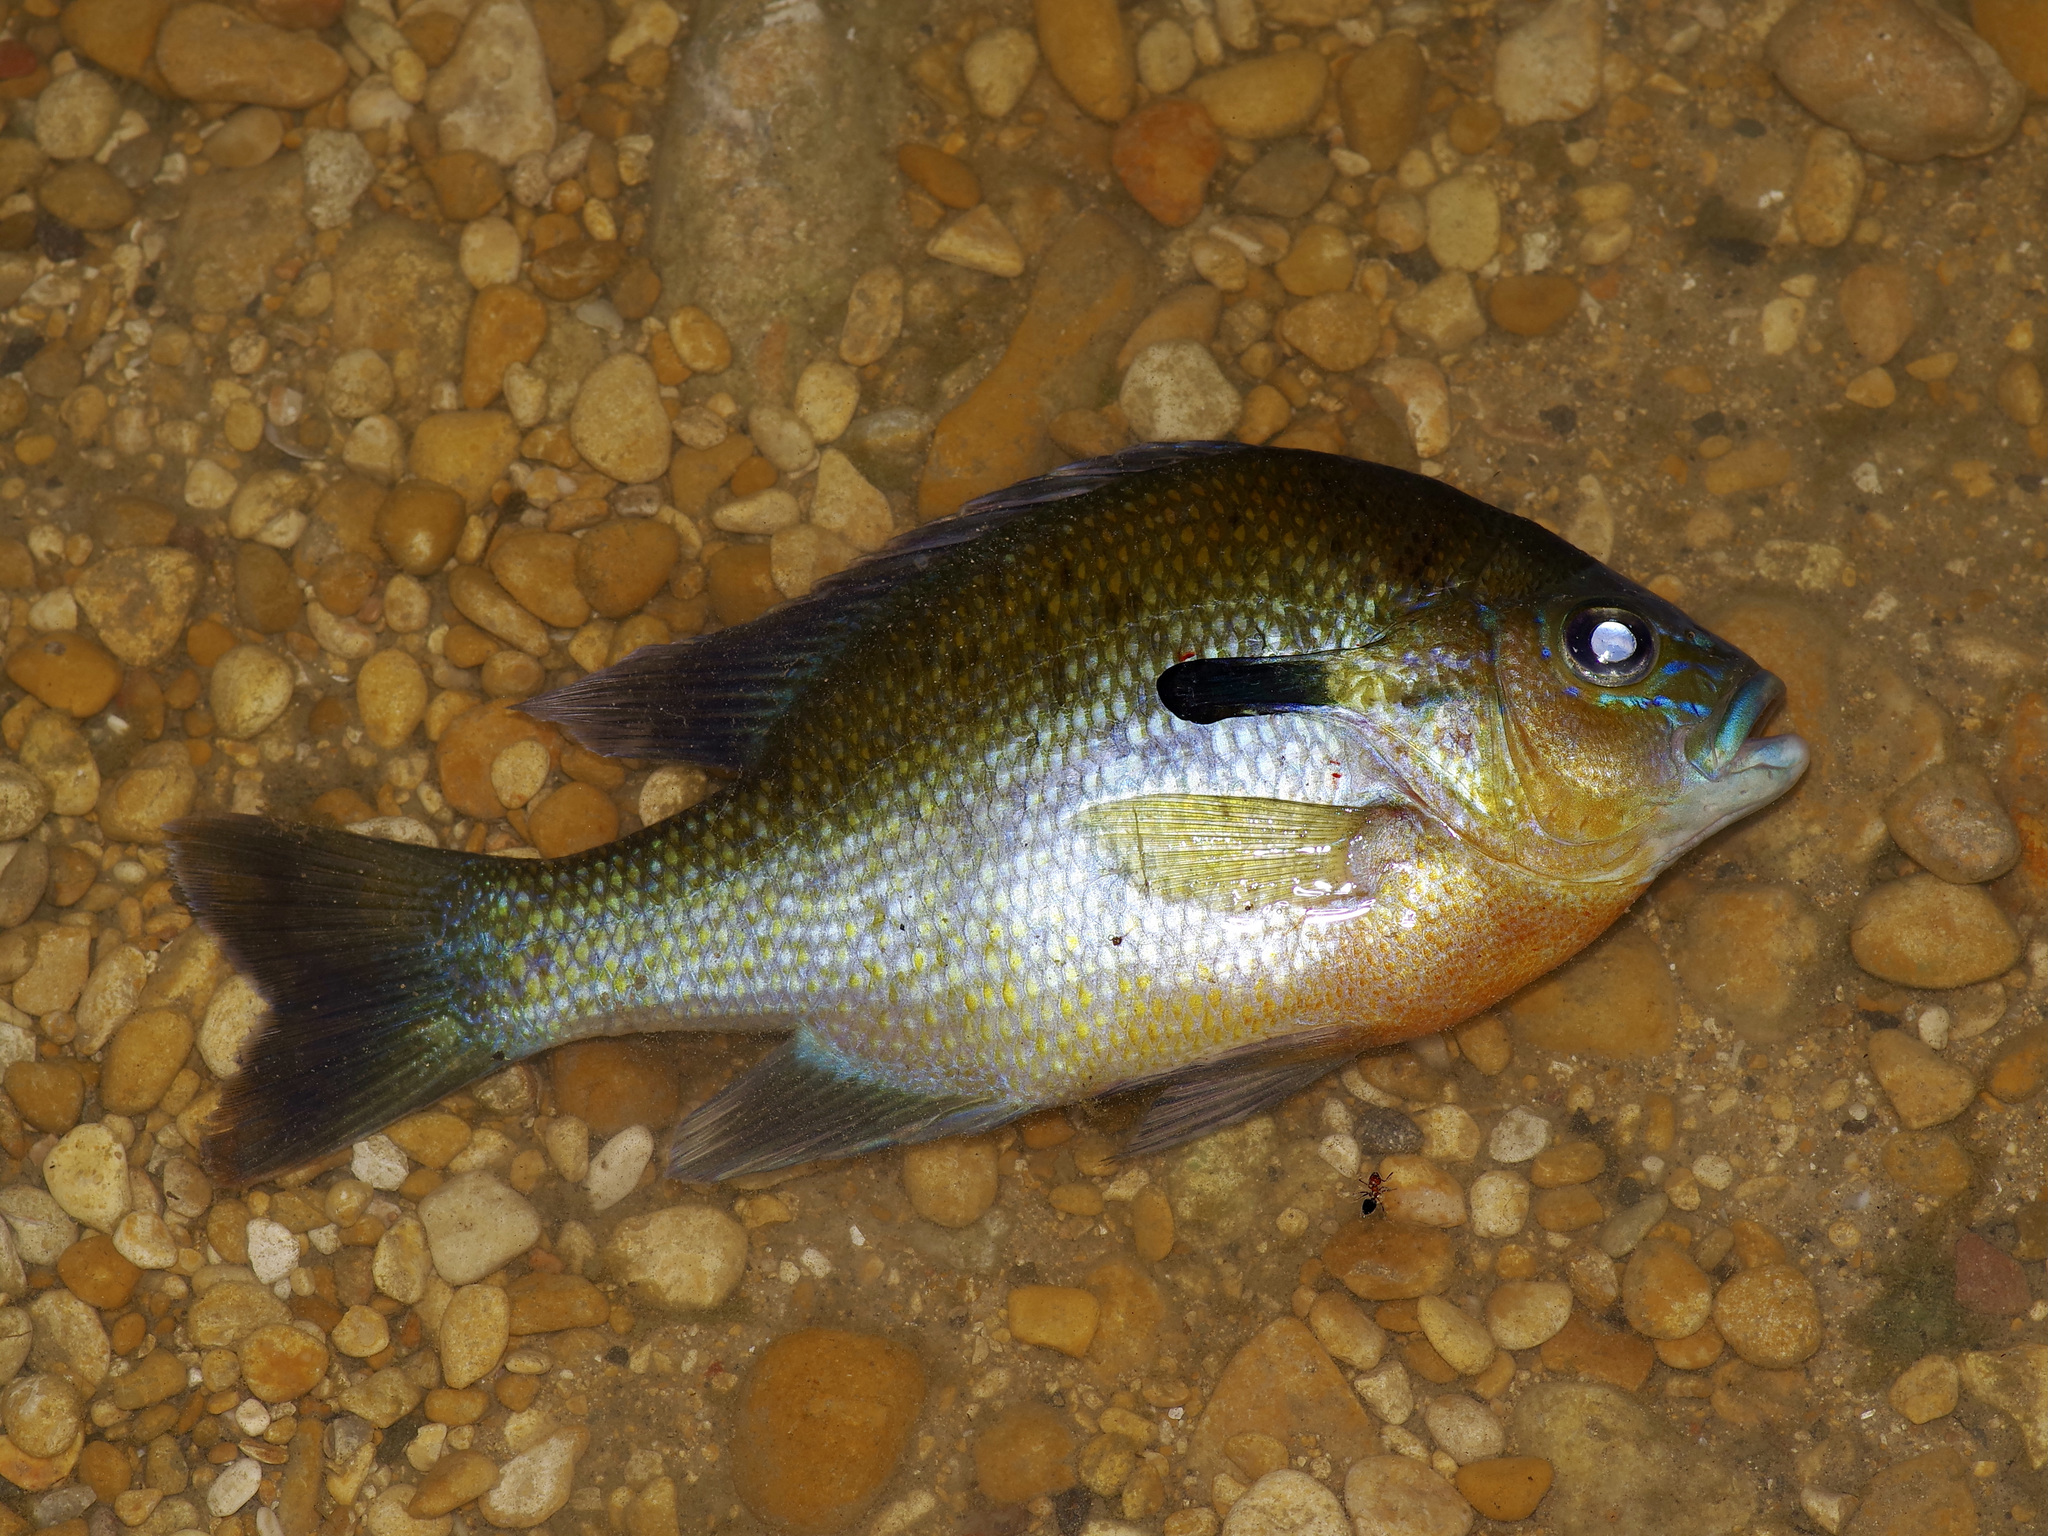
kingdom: Animalia
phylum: Chordata
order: Perciformes
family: Centrarchidae
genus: Lepomis
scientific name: Lepomis auritus
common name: Redbreast sunfish
